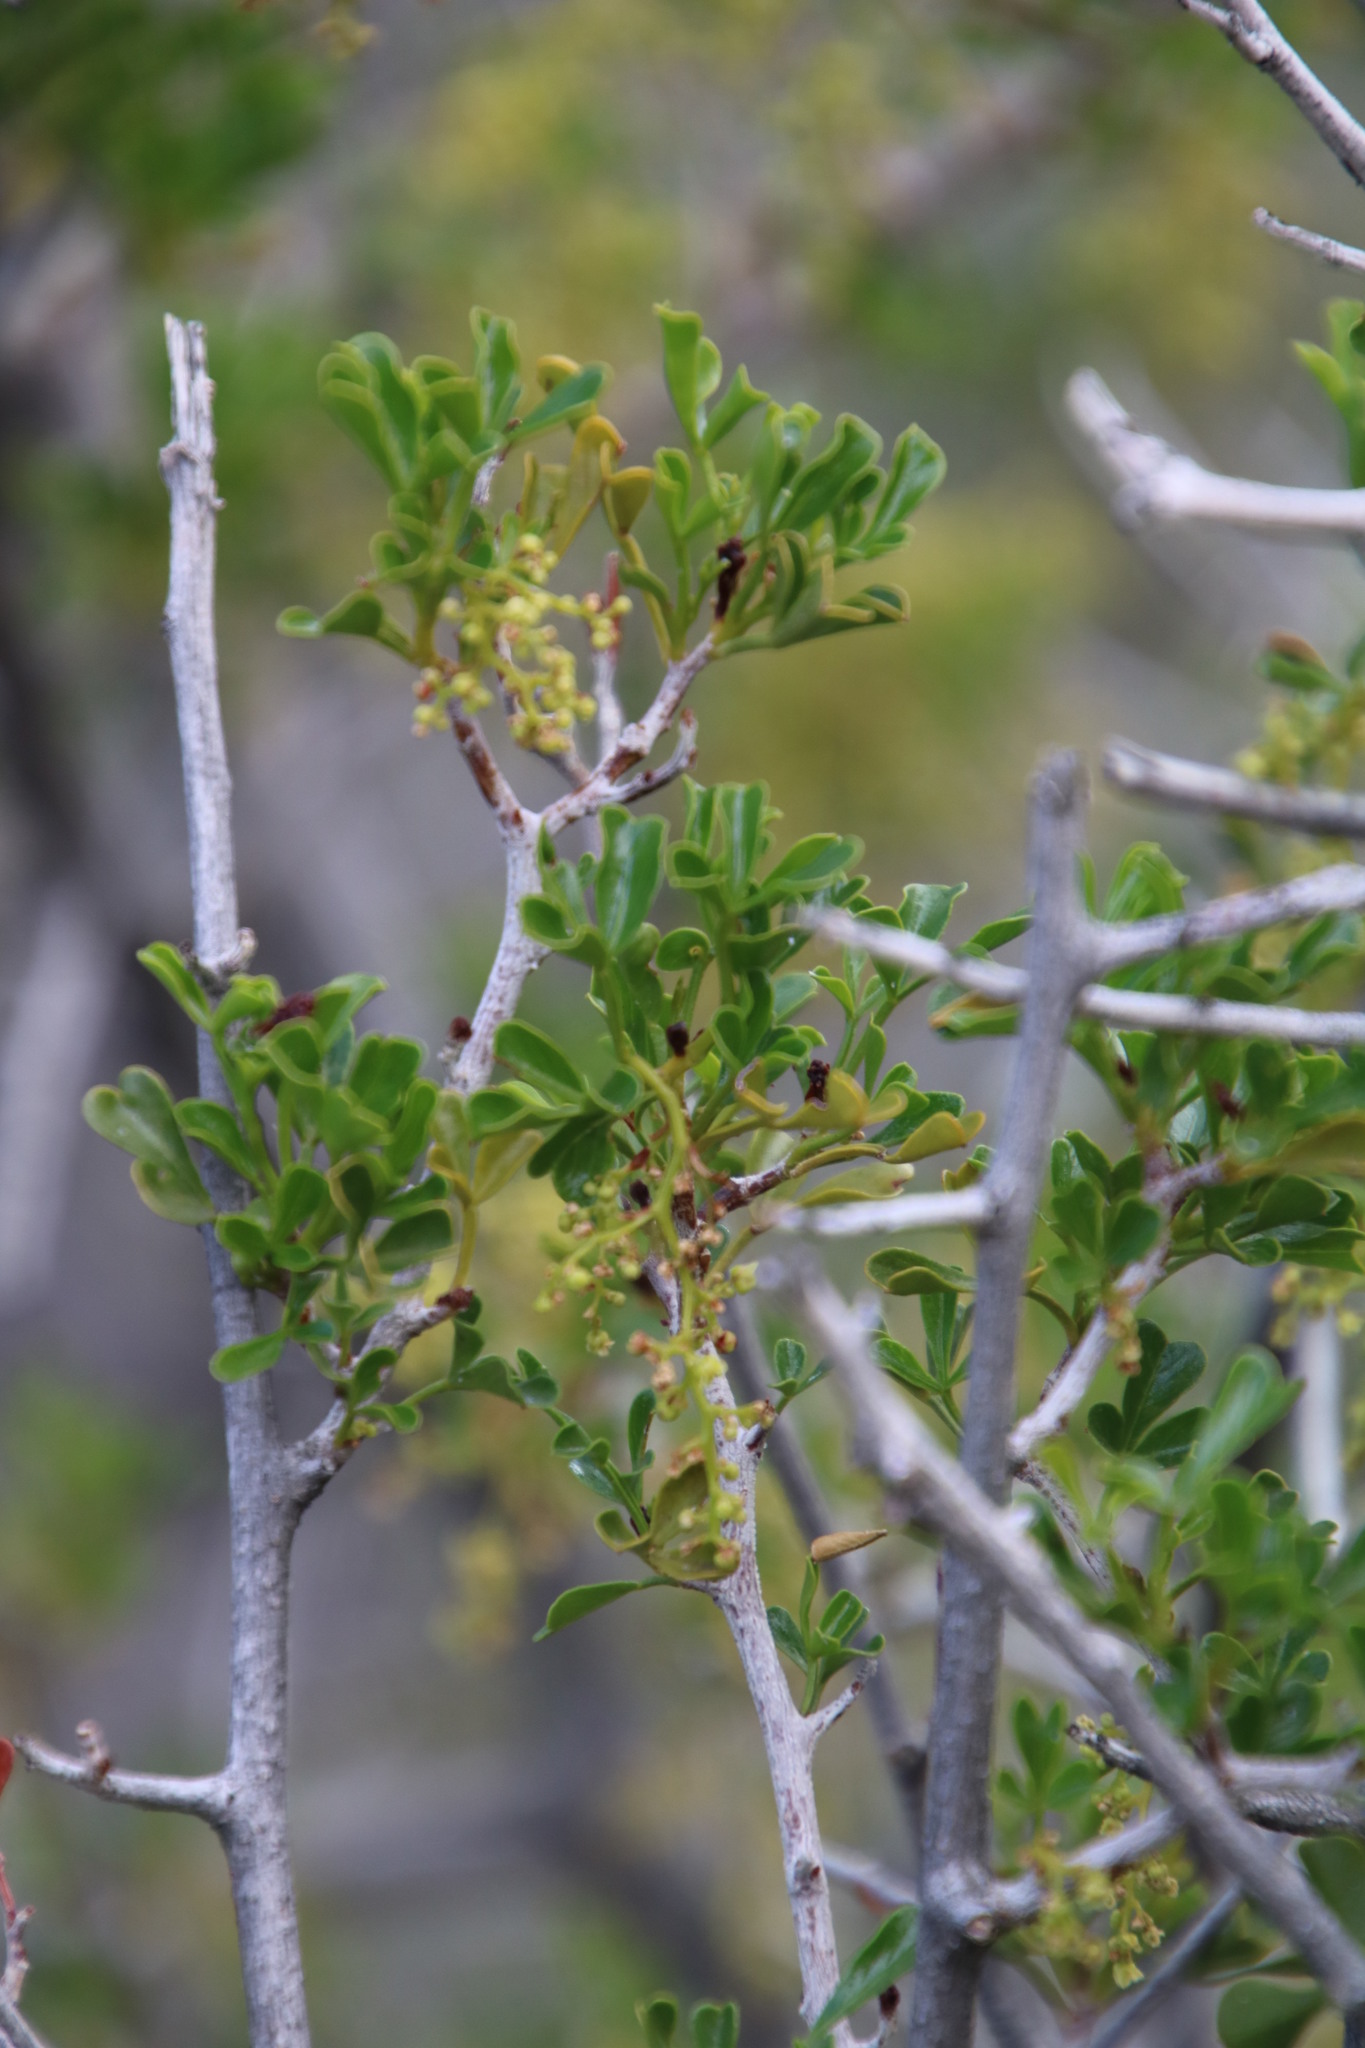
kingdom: Plantae
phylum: Tracheophyta
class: Magnoliopsida
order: Sapindales
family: Anacardiaceae
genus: Searsia
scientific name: Searsia burchellii
